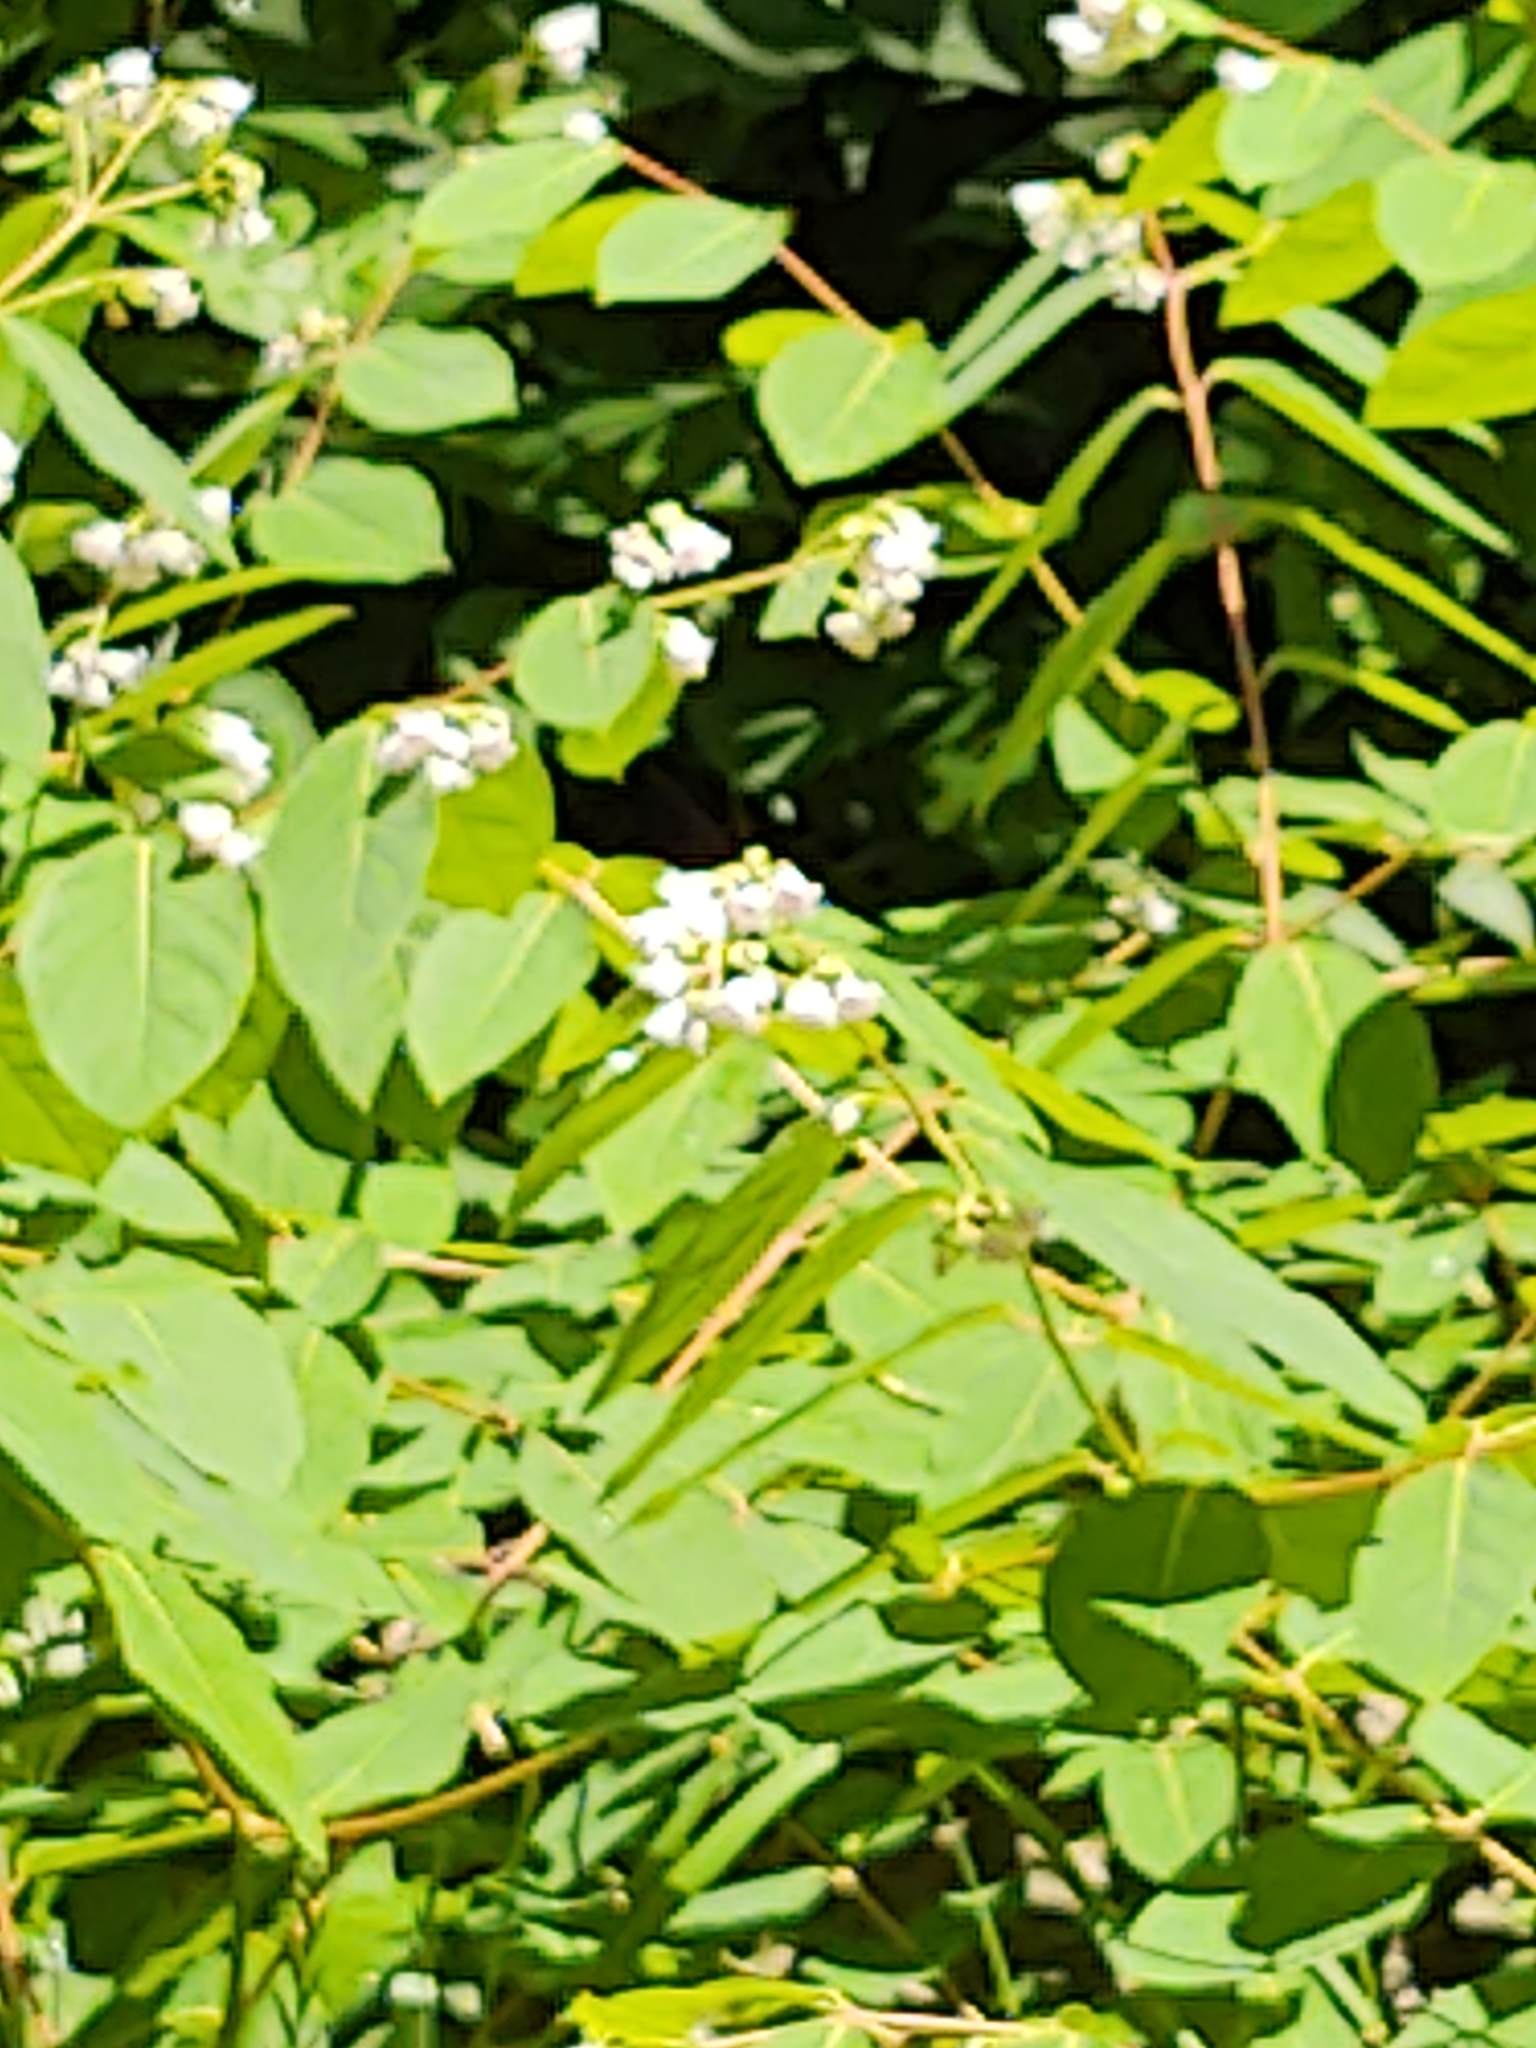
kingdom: Plantae
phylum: Tracheophyta
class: Magnoliopsida
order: Gentianales
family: Apocynaceae
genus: Apocynum
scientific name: Apocynum androsaemifolium
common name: Spreading dogbane
